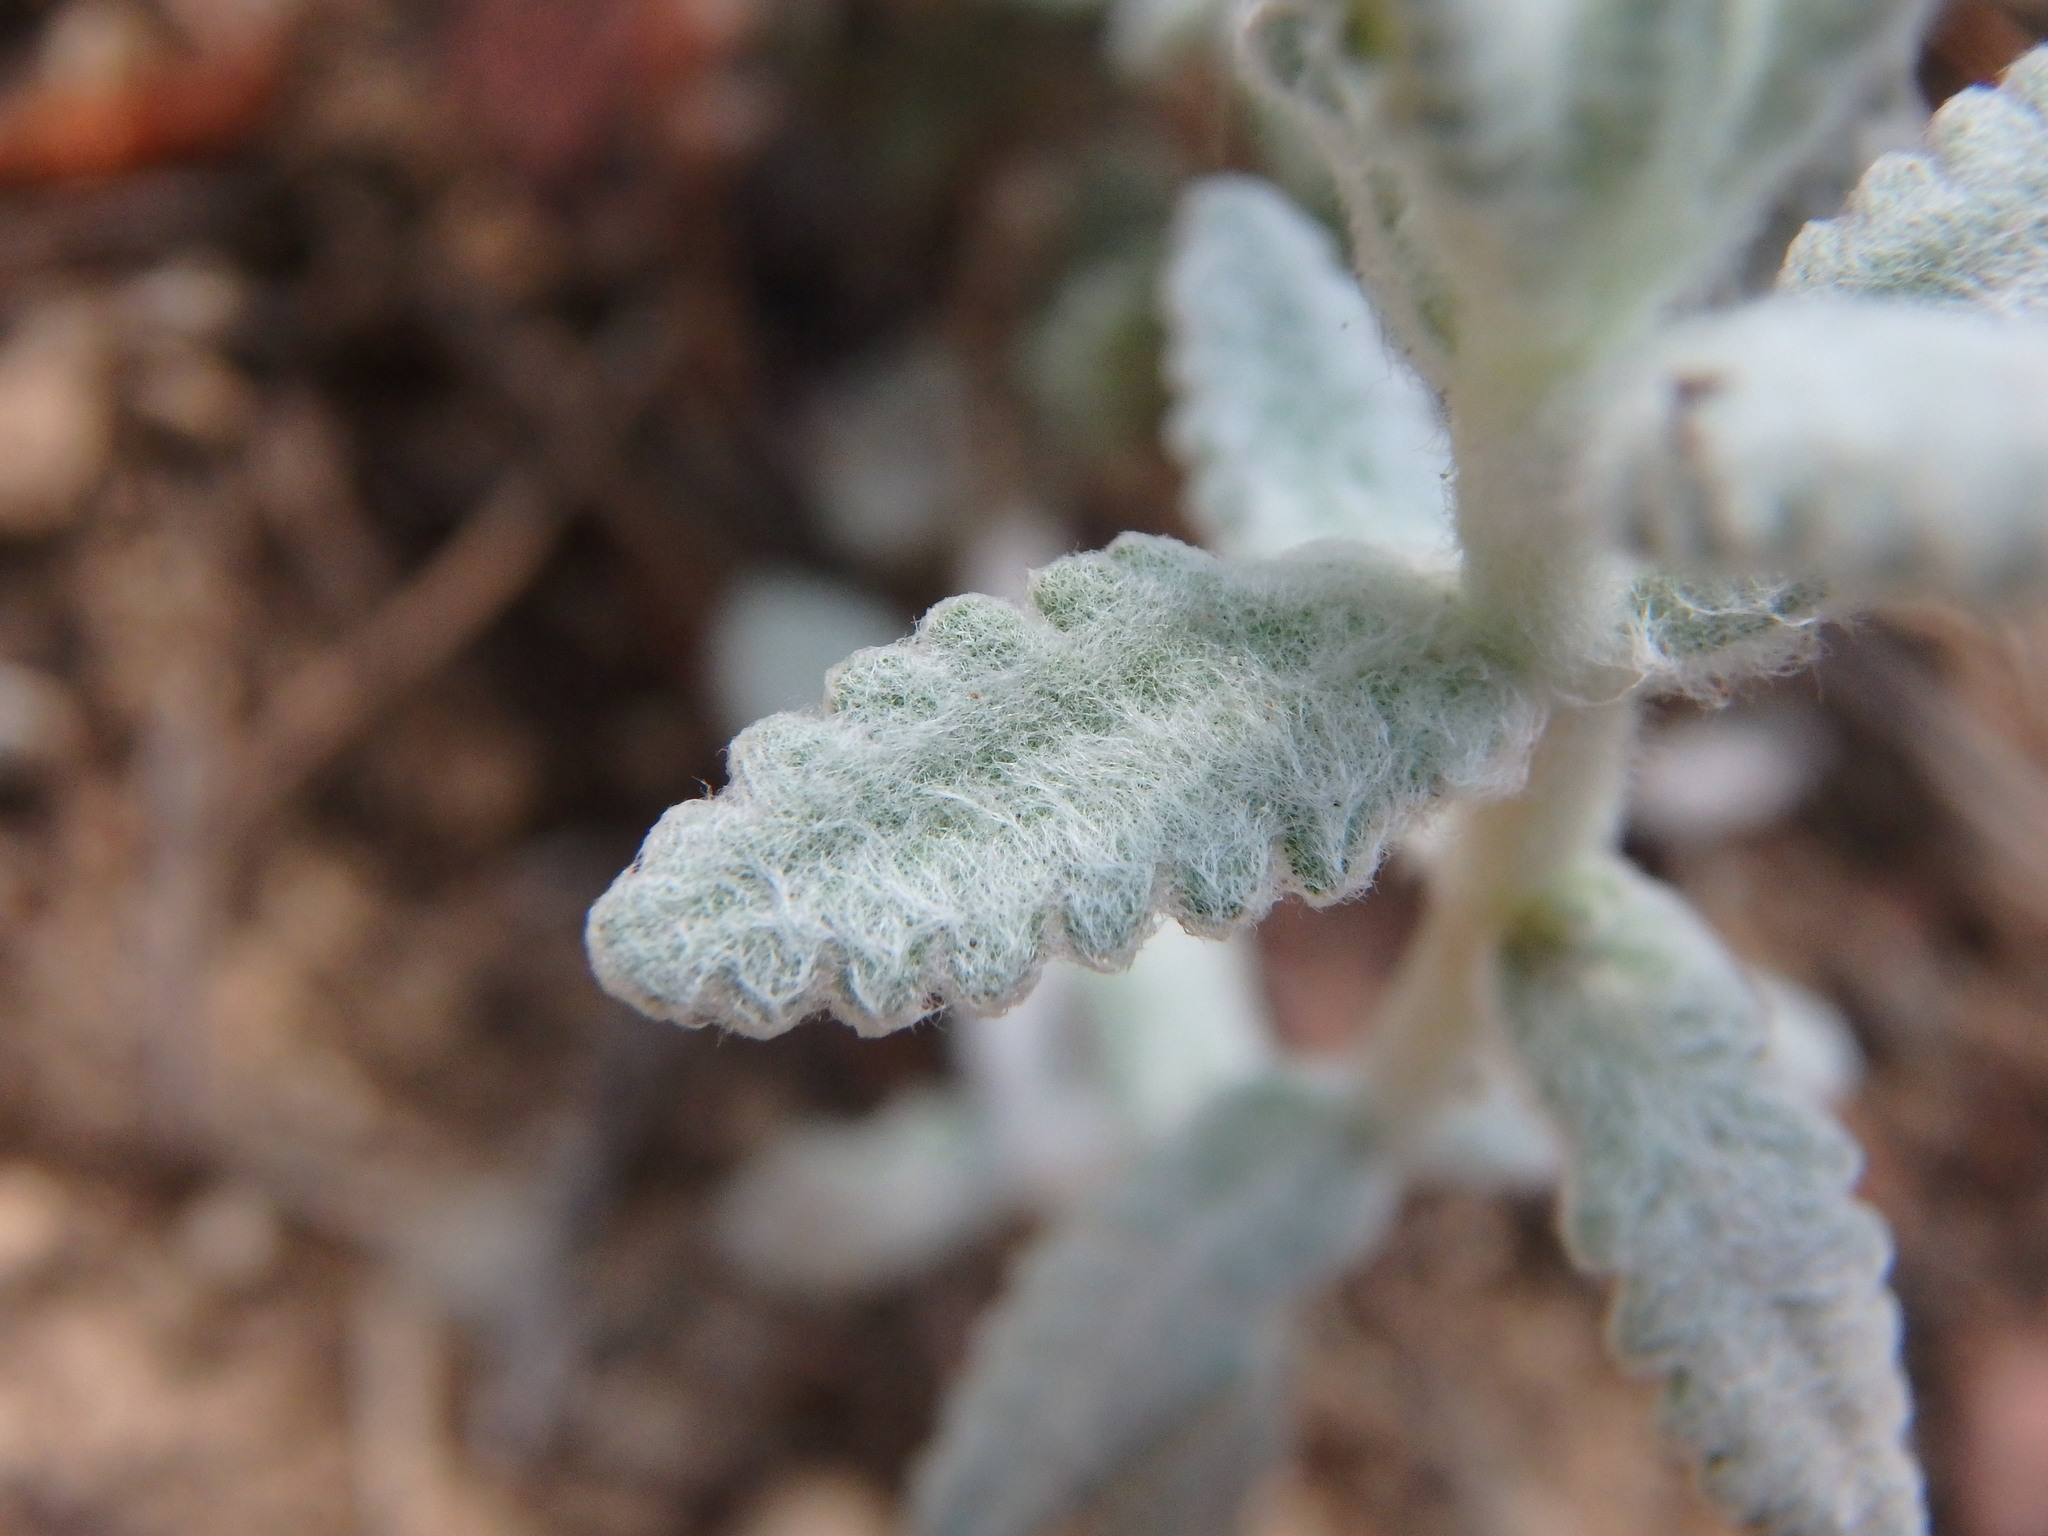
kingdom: Plantae
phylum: Tracheophyta
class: Magnoliopsida
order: Lamiales
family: Lamiaceae
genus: Teucrium
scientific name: Teucrium aureum
